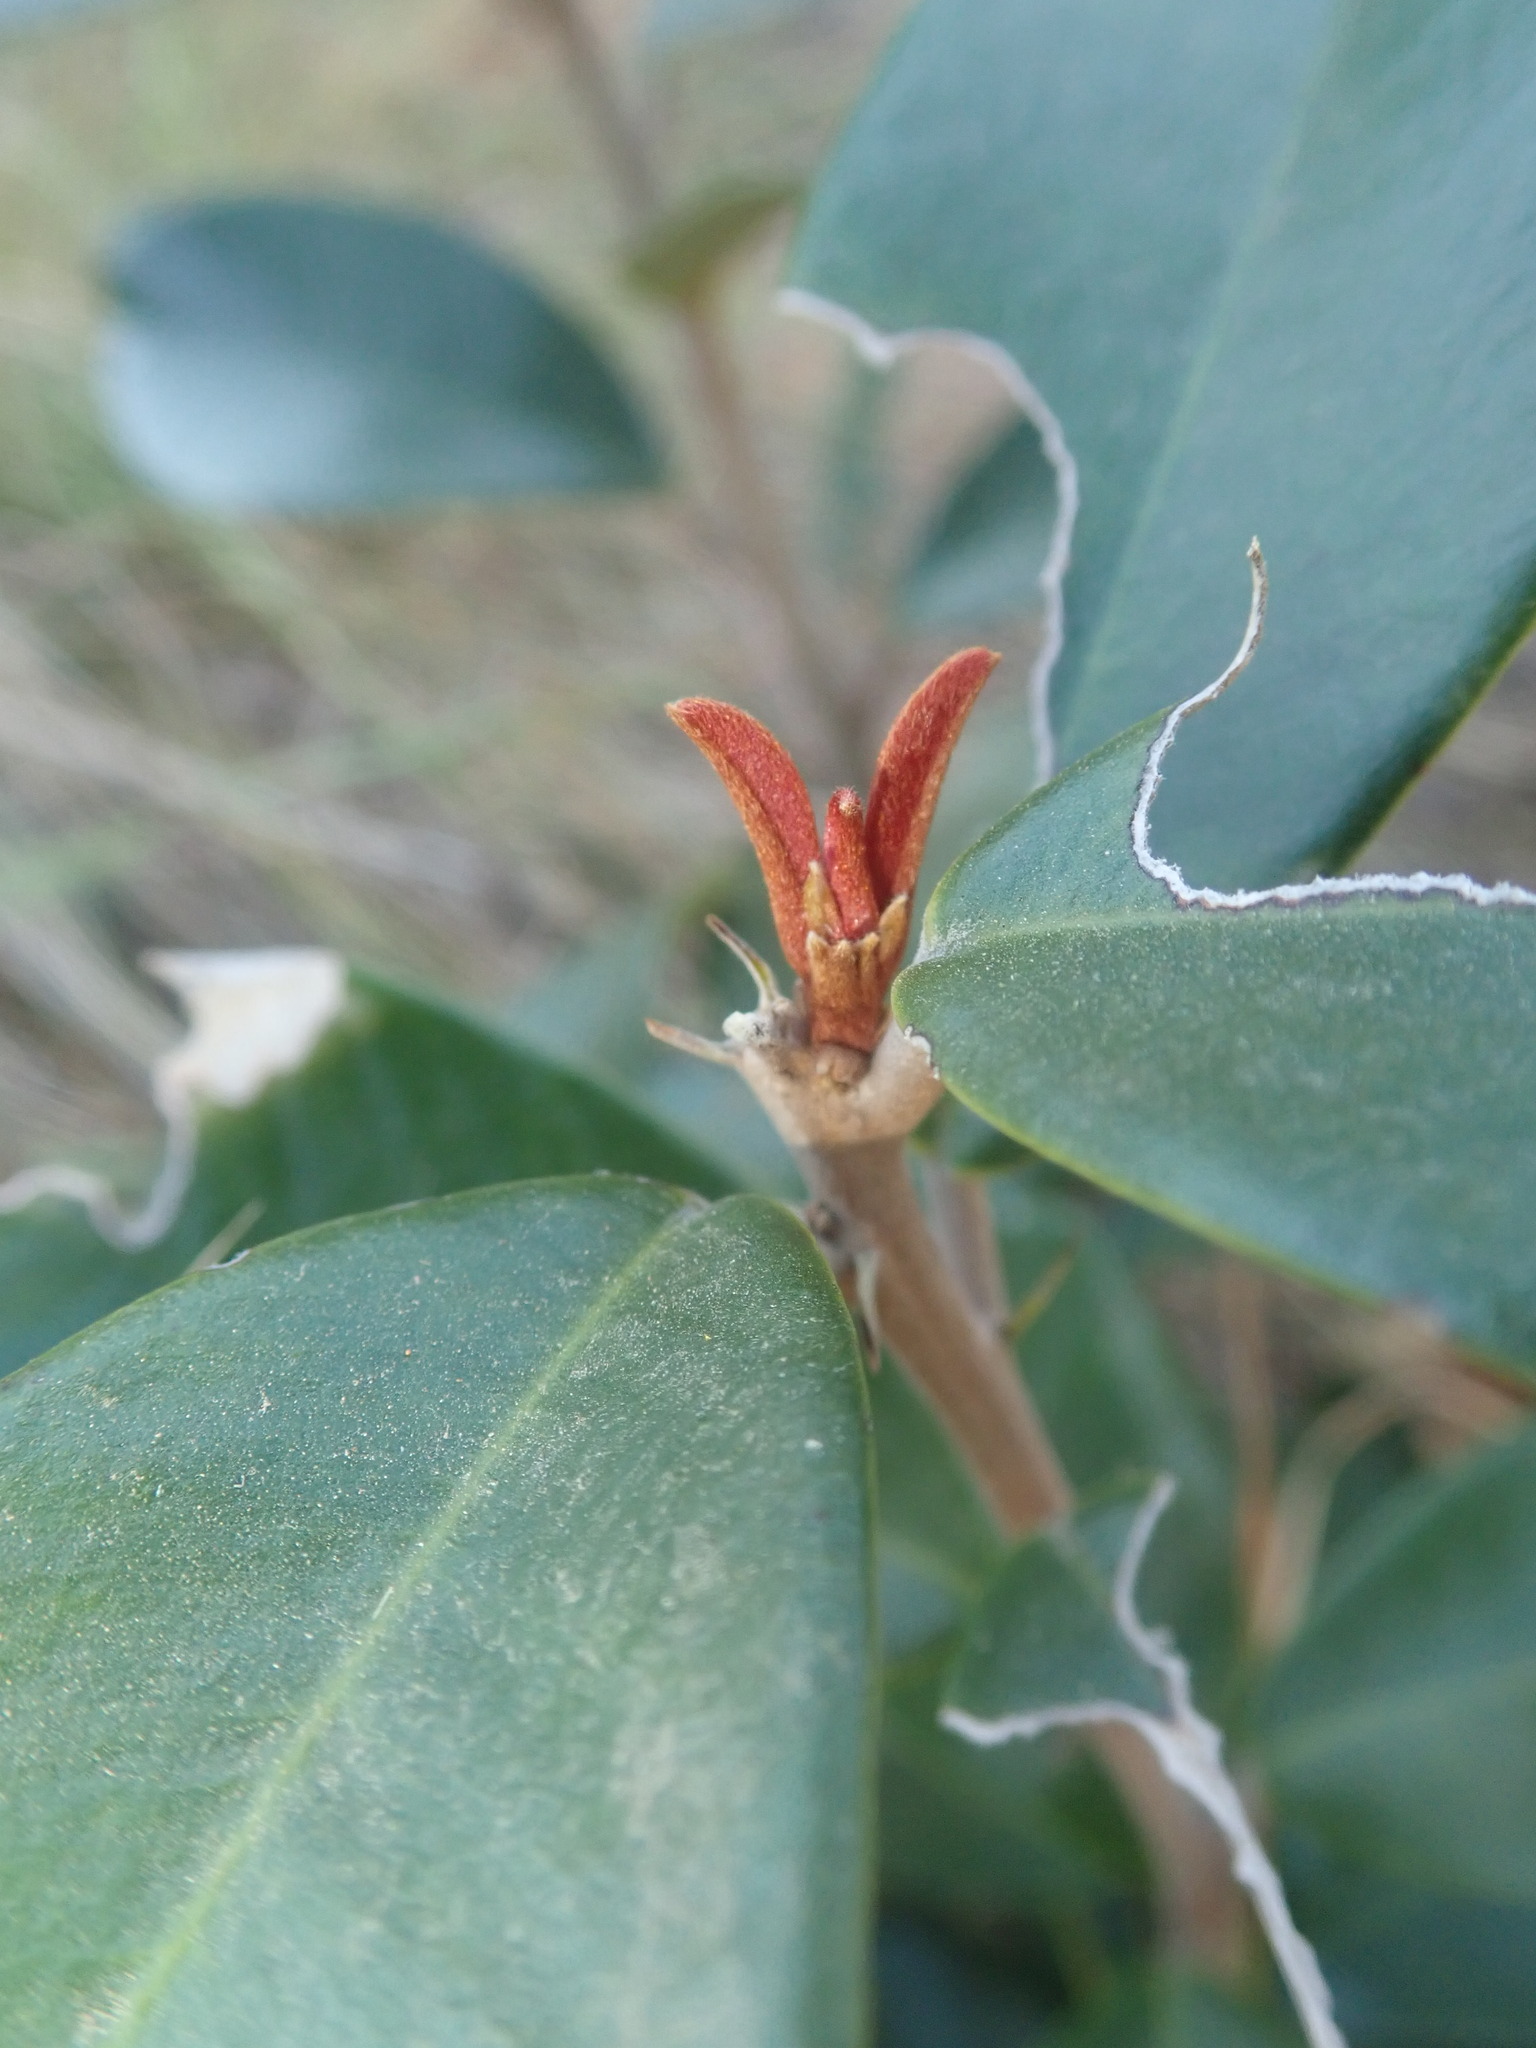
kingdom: Plantae
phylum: Tracheophyta
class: Magnoliopsida
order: Ericales
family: Sapotaceae
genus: Englerophytum
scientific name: Englerophytum magalismontanum
